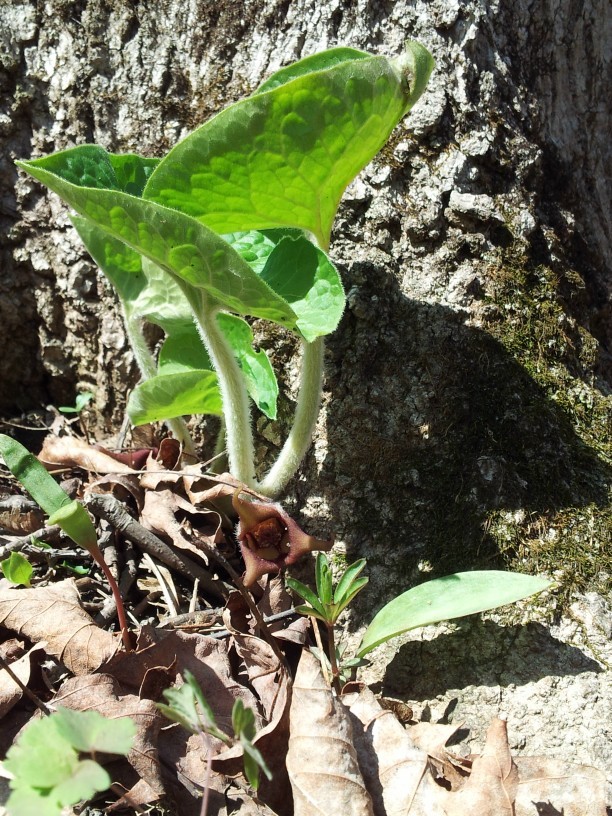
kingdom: Plantae
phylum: Tracheophyta
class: Magnoliopsida
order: Piperales
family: Aristolochiaceae
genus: Asarum
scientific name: Asarum canadense
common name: Wild ginger
